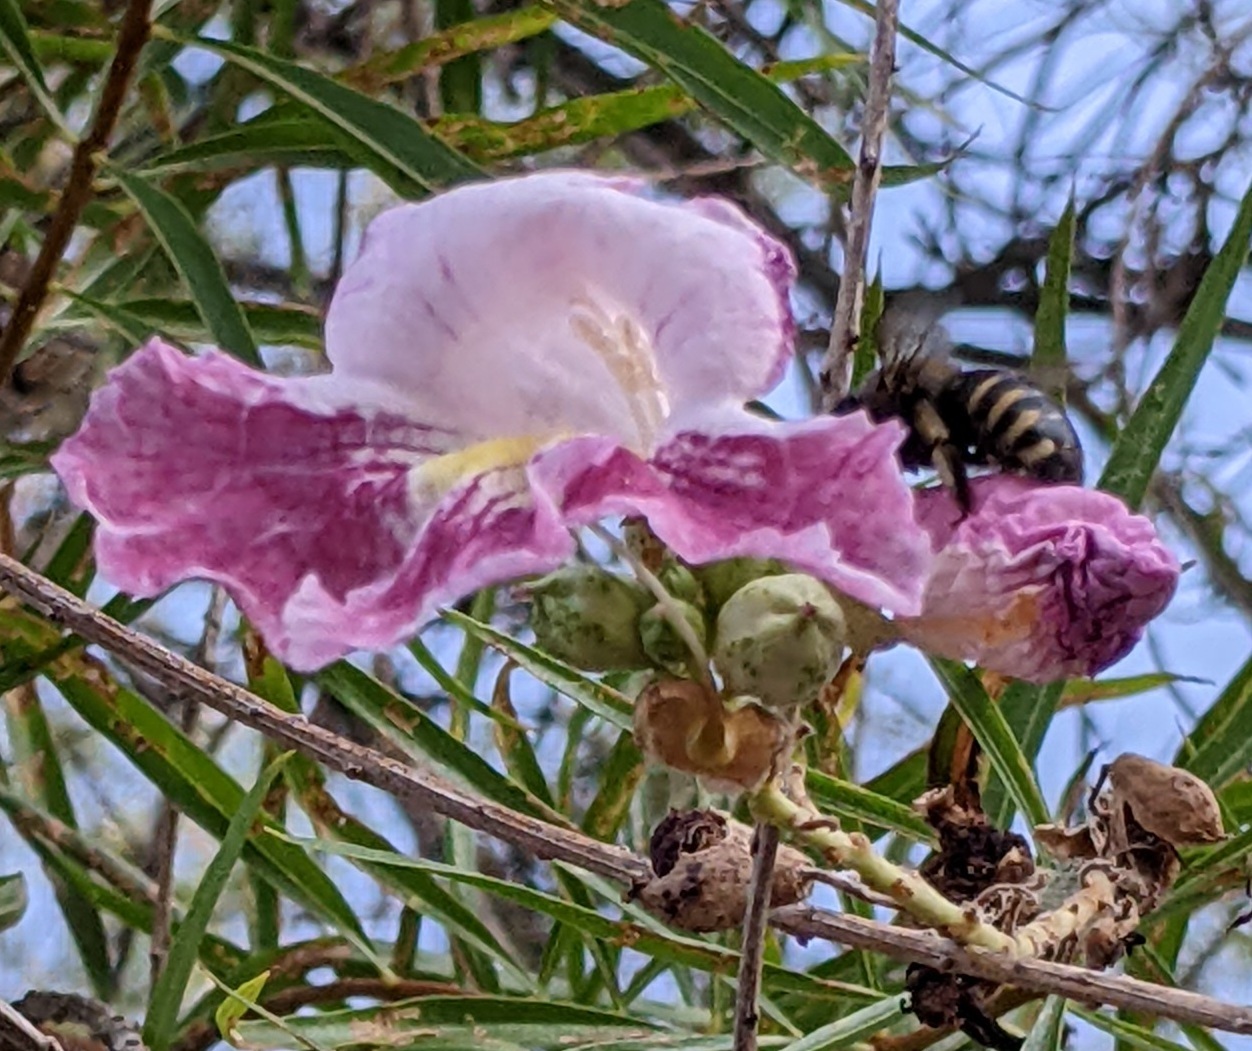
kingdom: Animalia
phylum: Arthropoda
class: Insecta
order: Hymenoptera
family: Apidae
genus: Xylocopa
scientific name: Xylocopa tabaniformis
